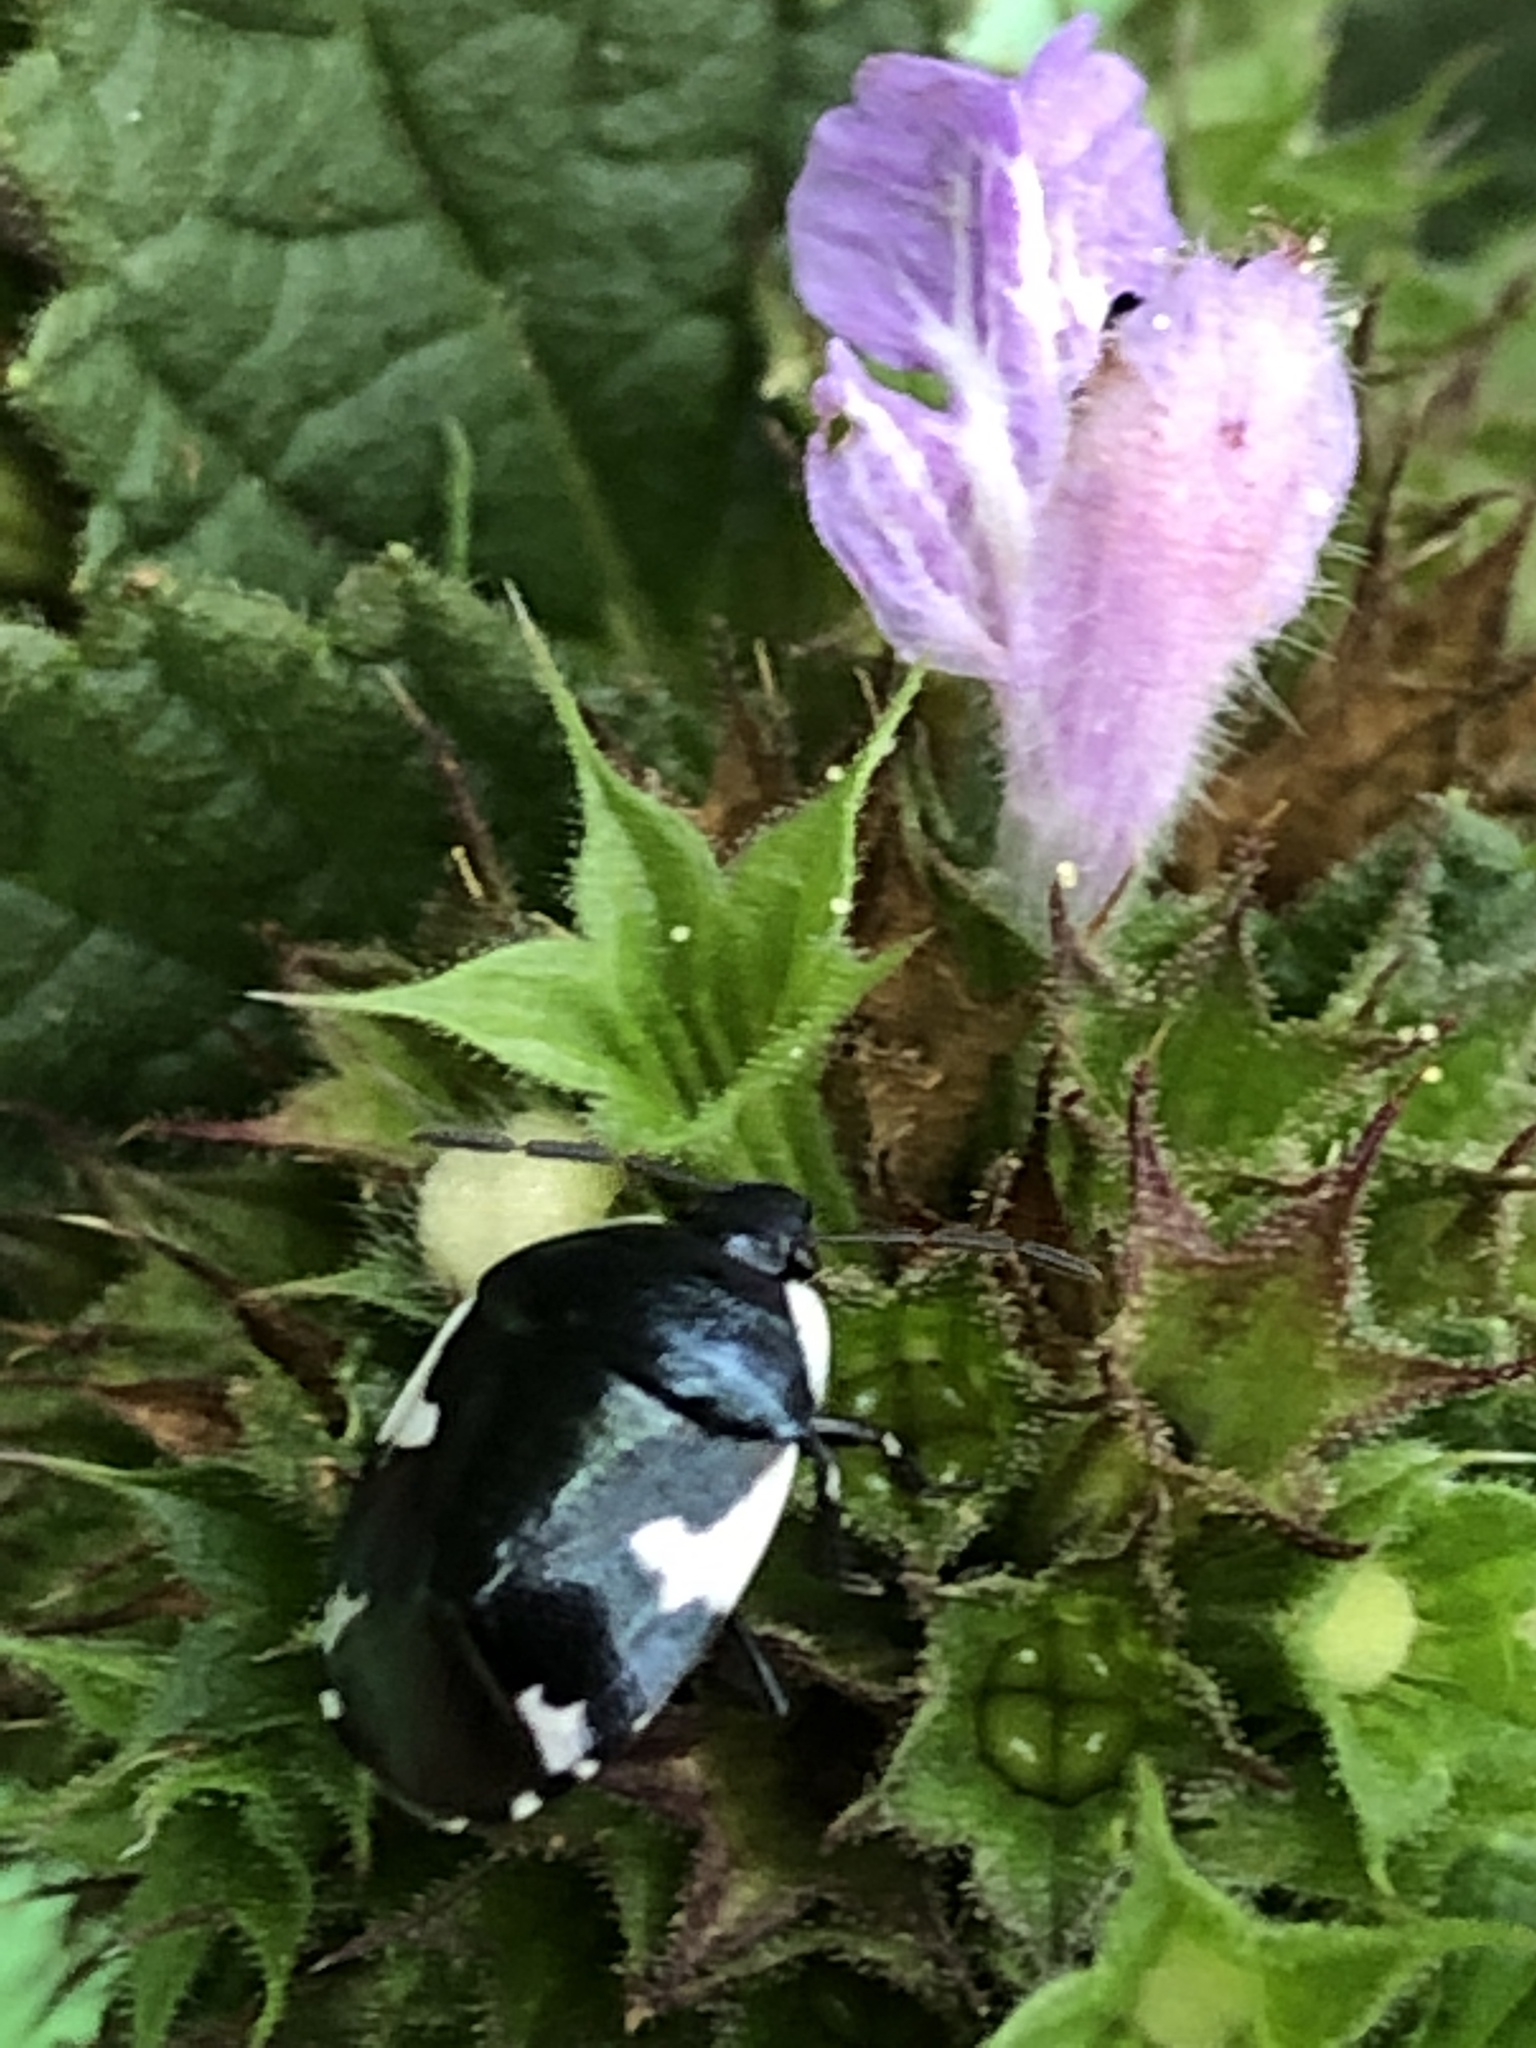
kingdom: Animalia
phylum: Arthropoda
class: Insecta
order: Hemiptera
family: Cydnidae
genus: Tritomegas
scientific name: Tritomegas sexmaculatus
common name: Rambur's pied shieldbug
